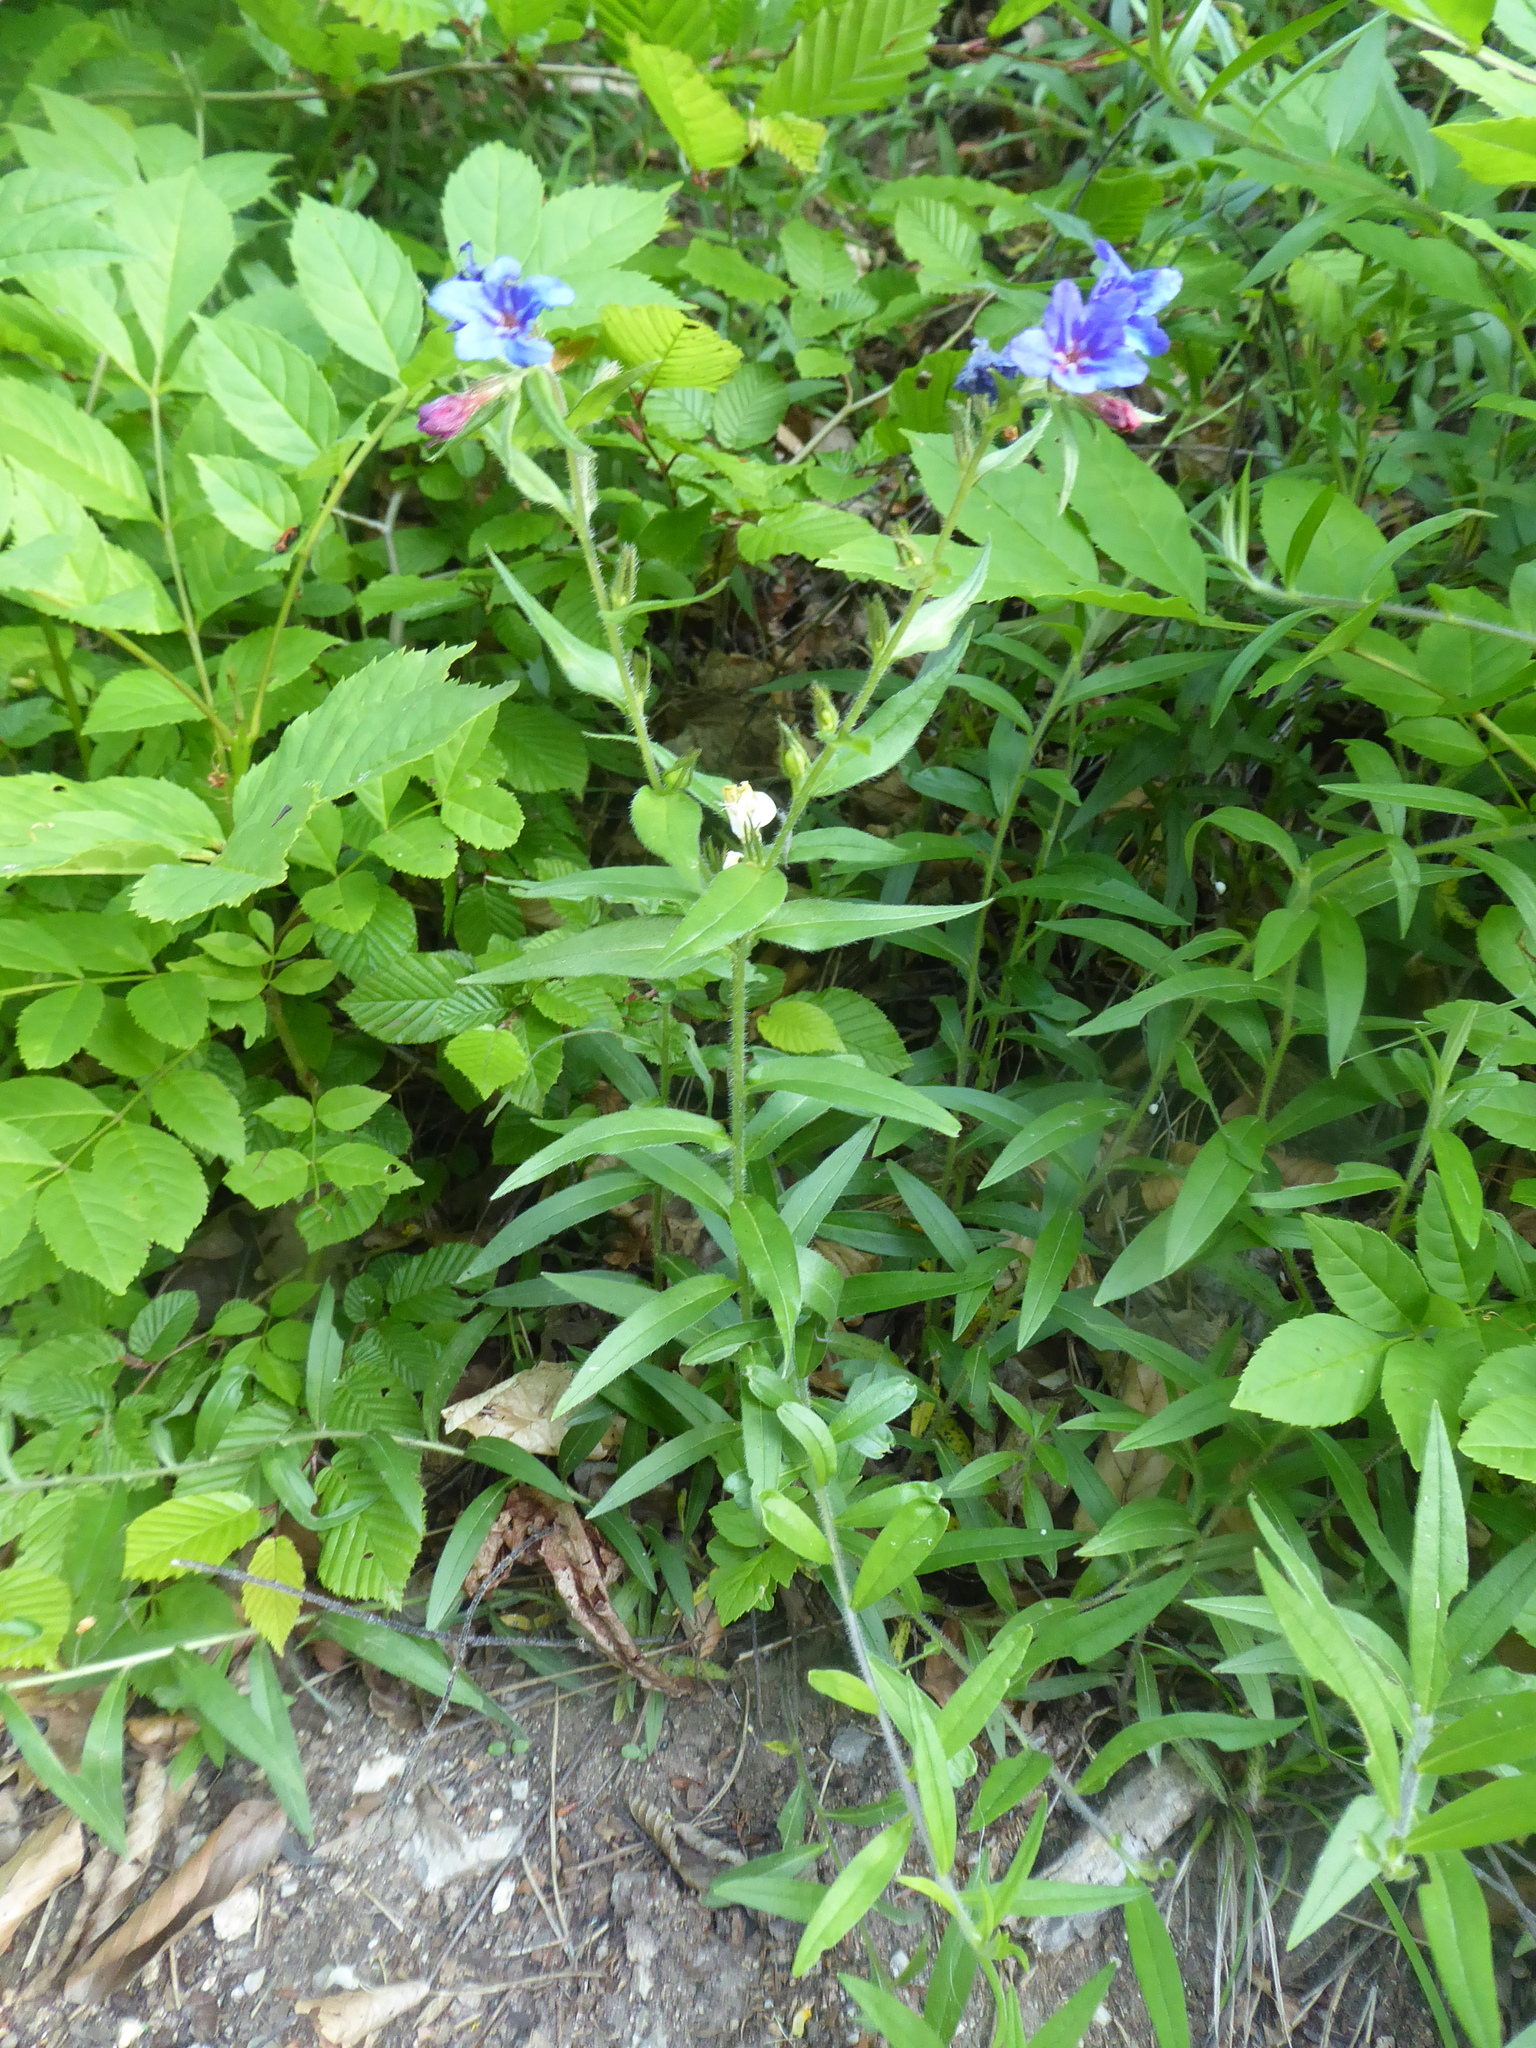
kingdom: Plantae
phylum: Tracheophyta
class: Magnoliopsida
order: Boraginales
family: Boraginaceae
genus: Aegonychon
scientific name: Aegonychon purpurocaeruleum
